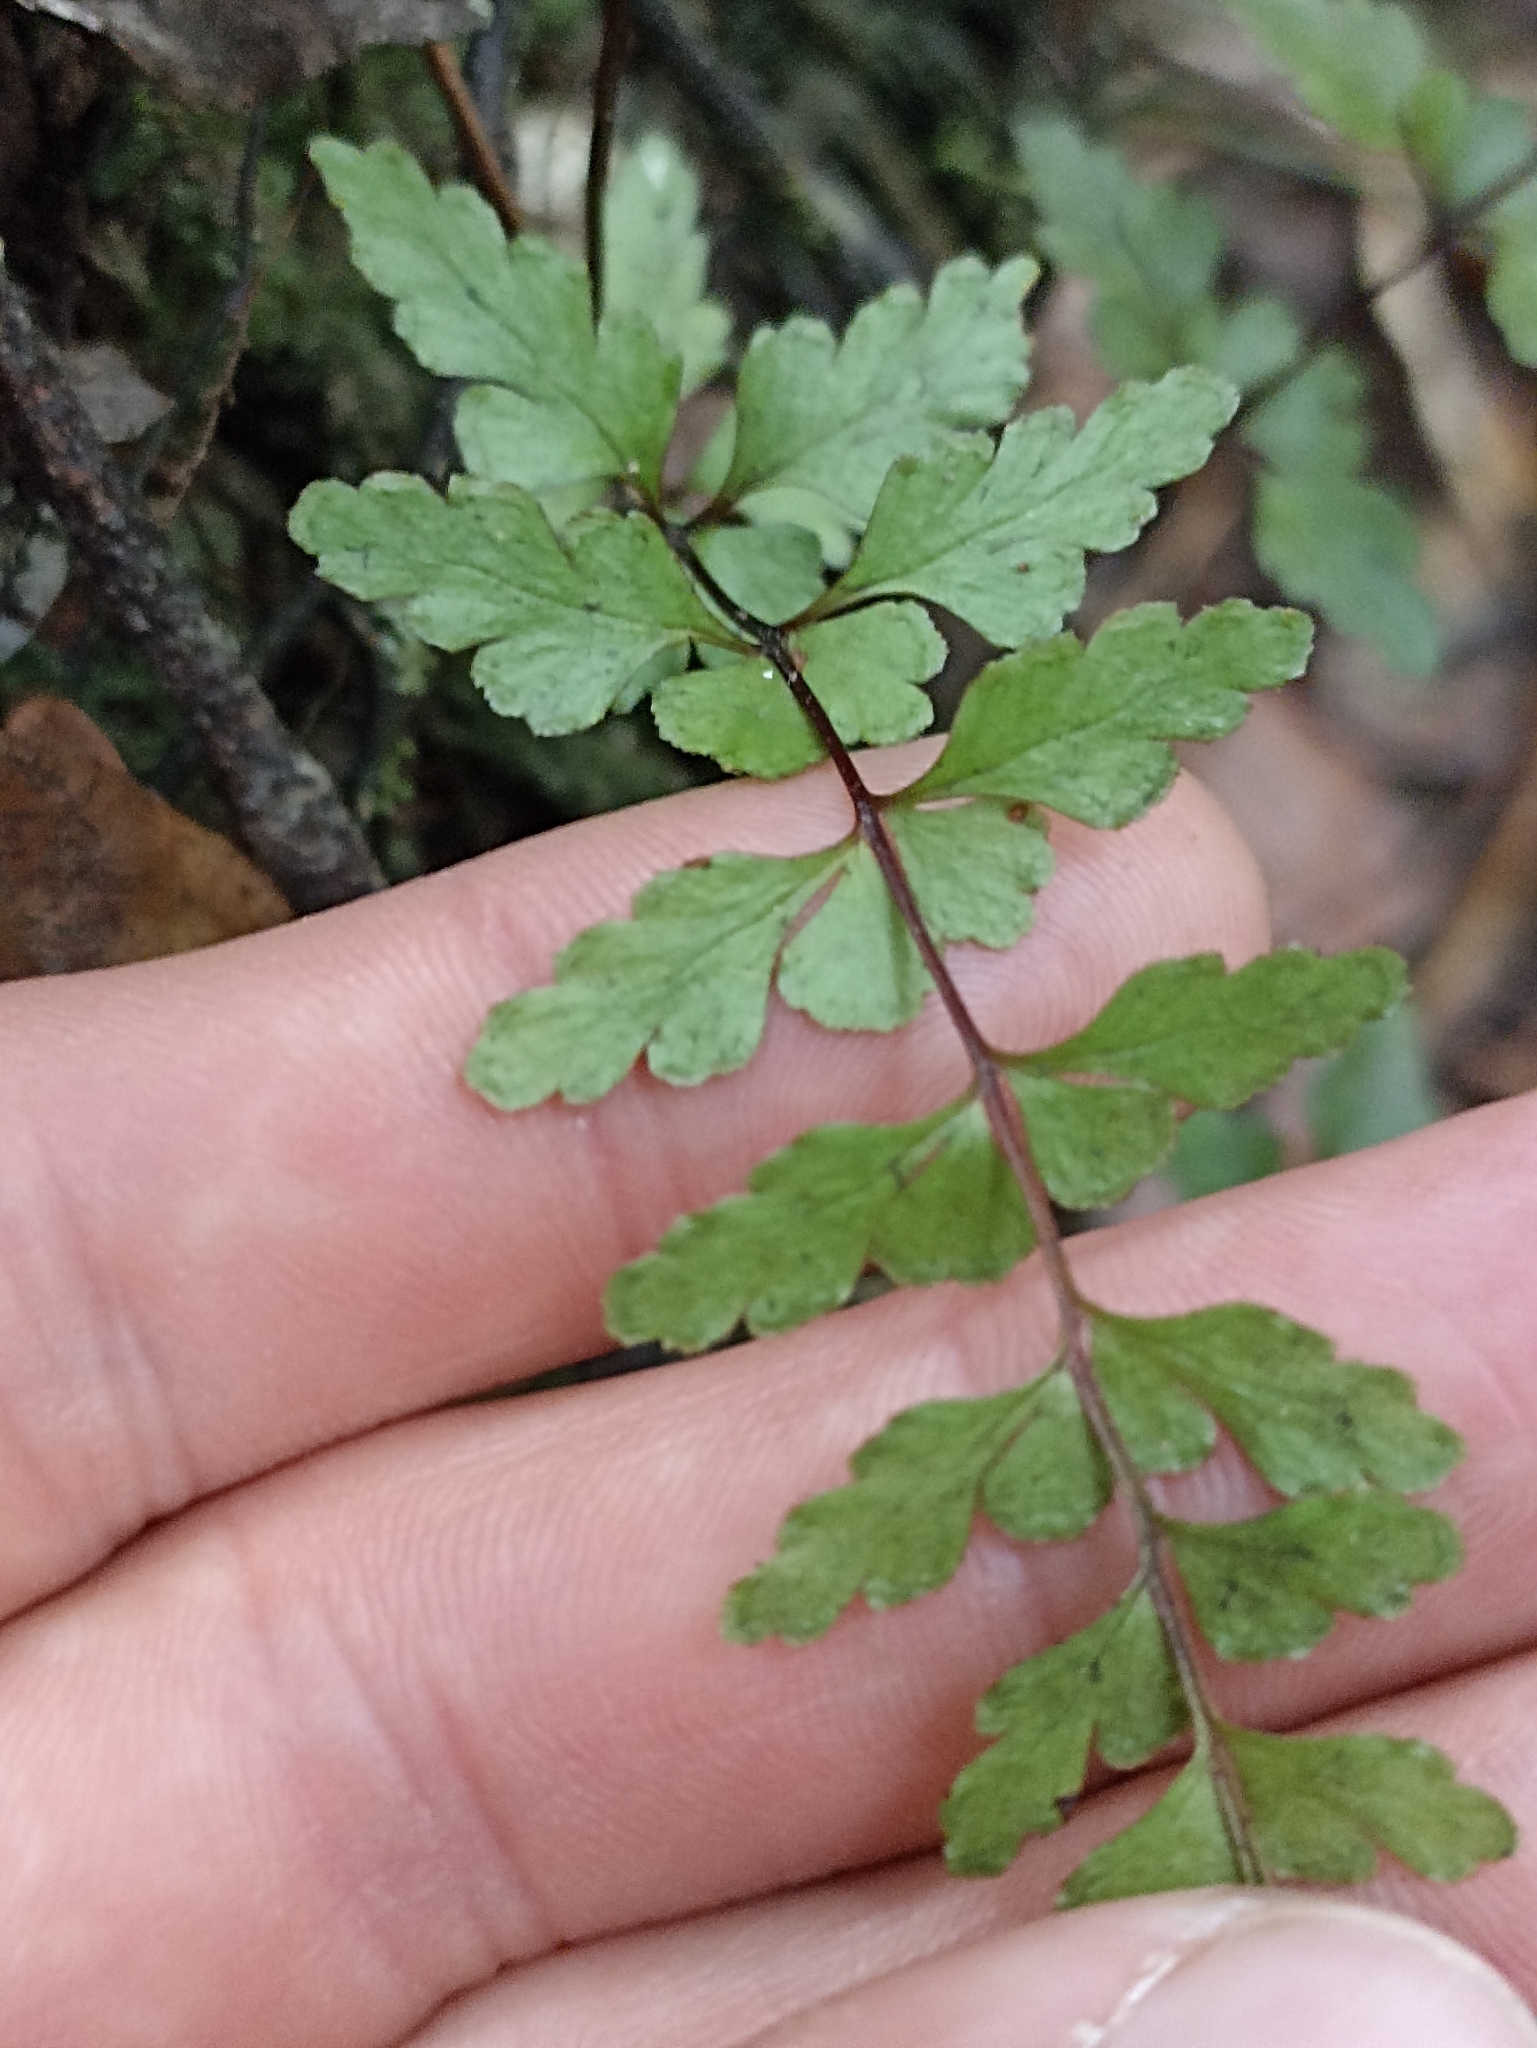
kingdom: Plantae
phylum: Tracheophyta
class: Polypodiopsida
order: Polypodiales
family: Lindsaeaceae
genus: Lindsaea
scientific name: Lindsaea trichomanoides
